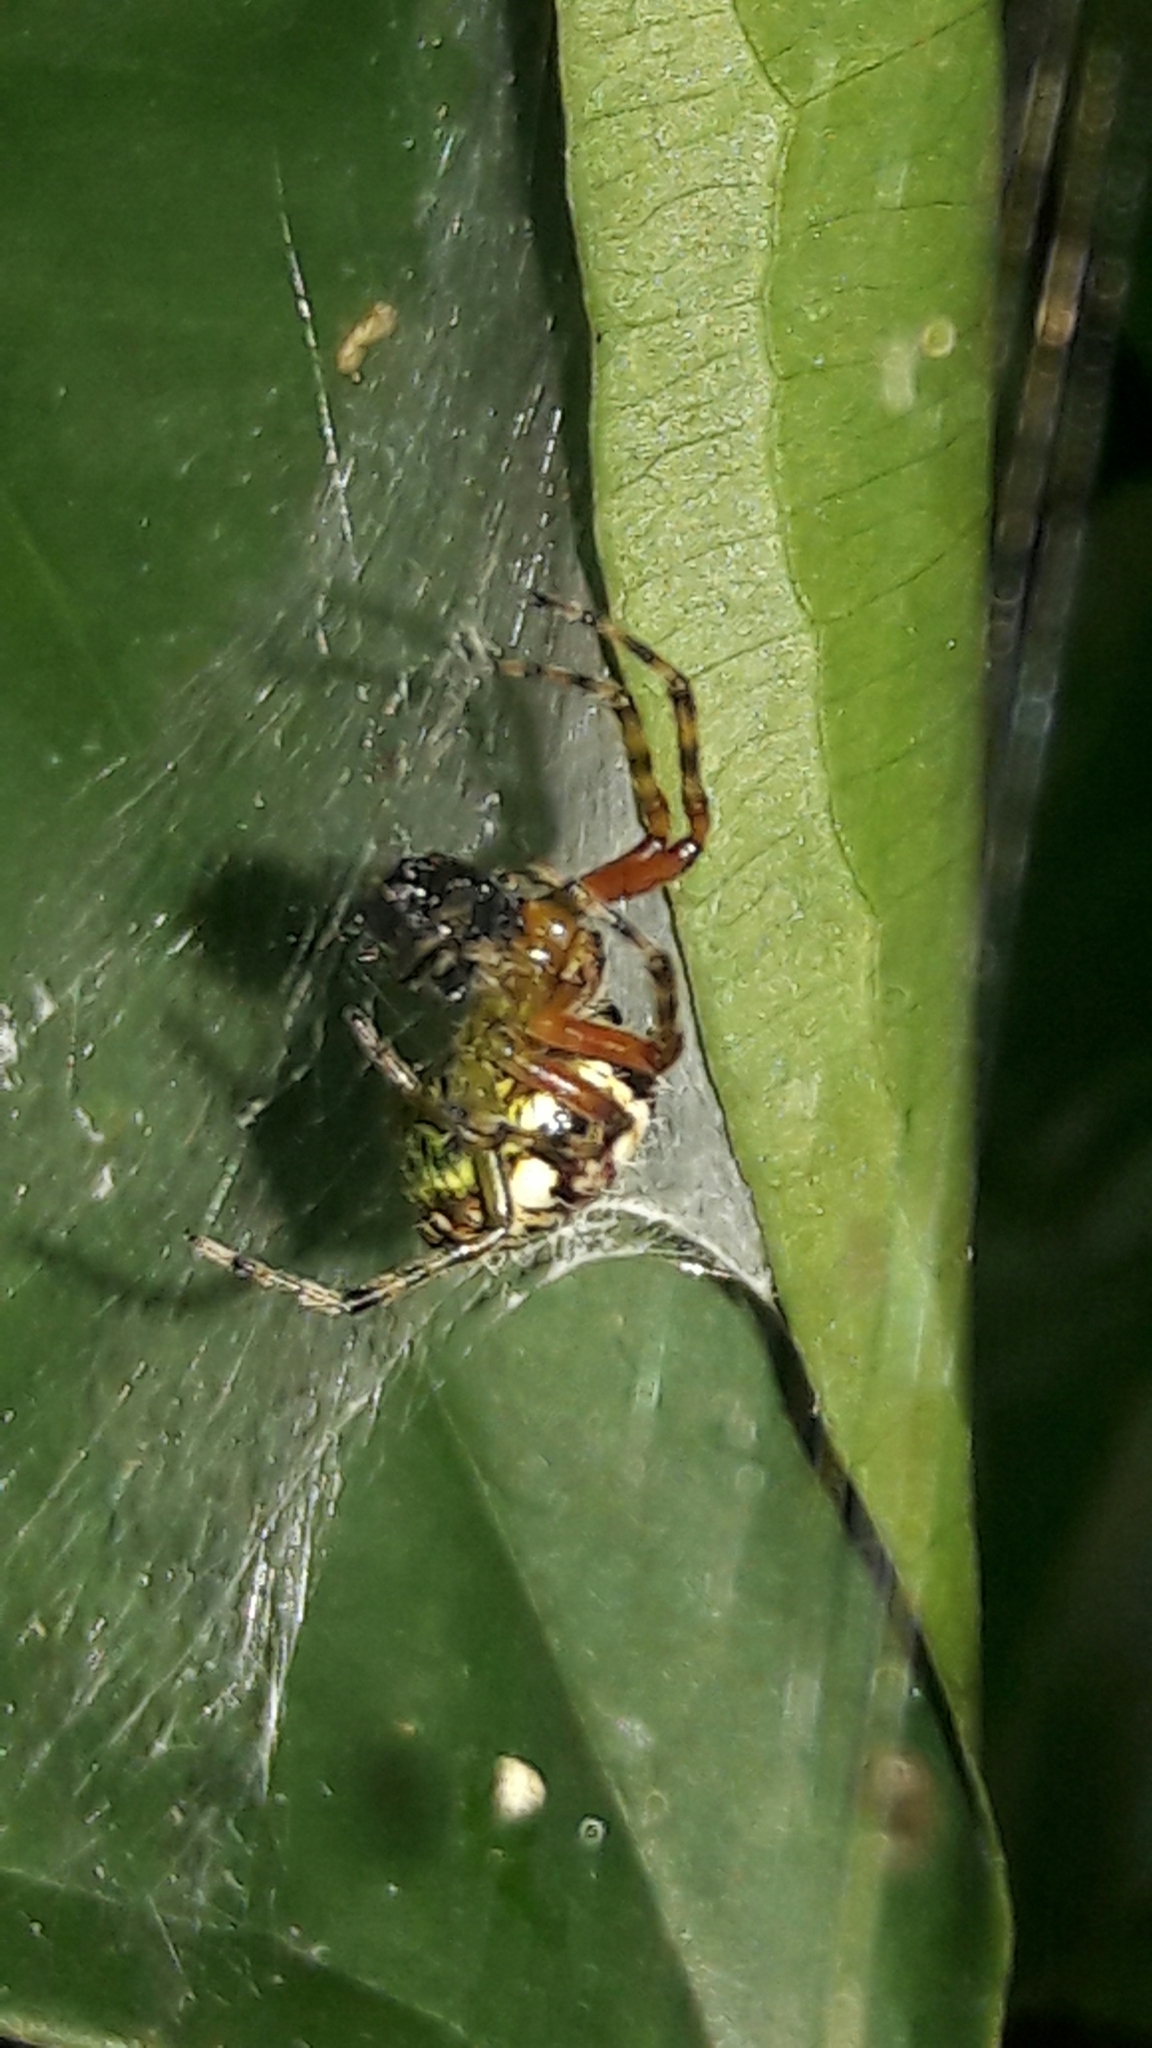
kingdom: Animalia
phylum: Arthropoda
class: Arachnida
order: Araneae
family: Araneidae
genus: Alpaida
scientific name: Alpaida truncata
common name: Orb weavers
